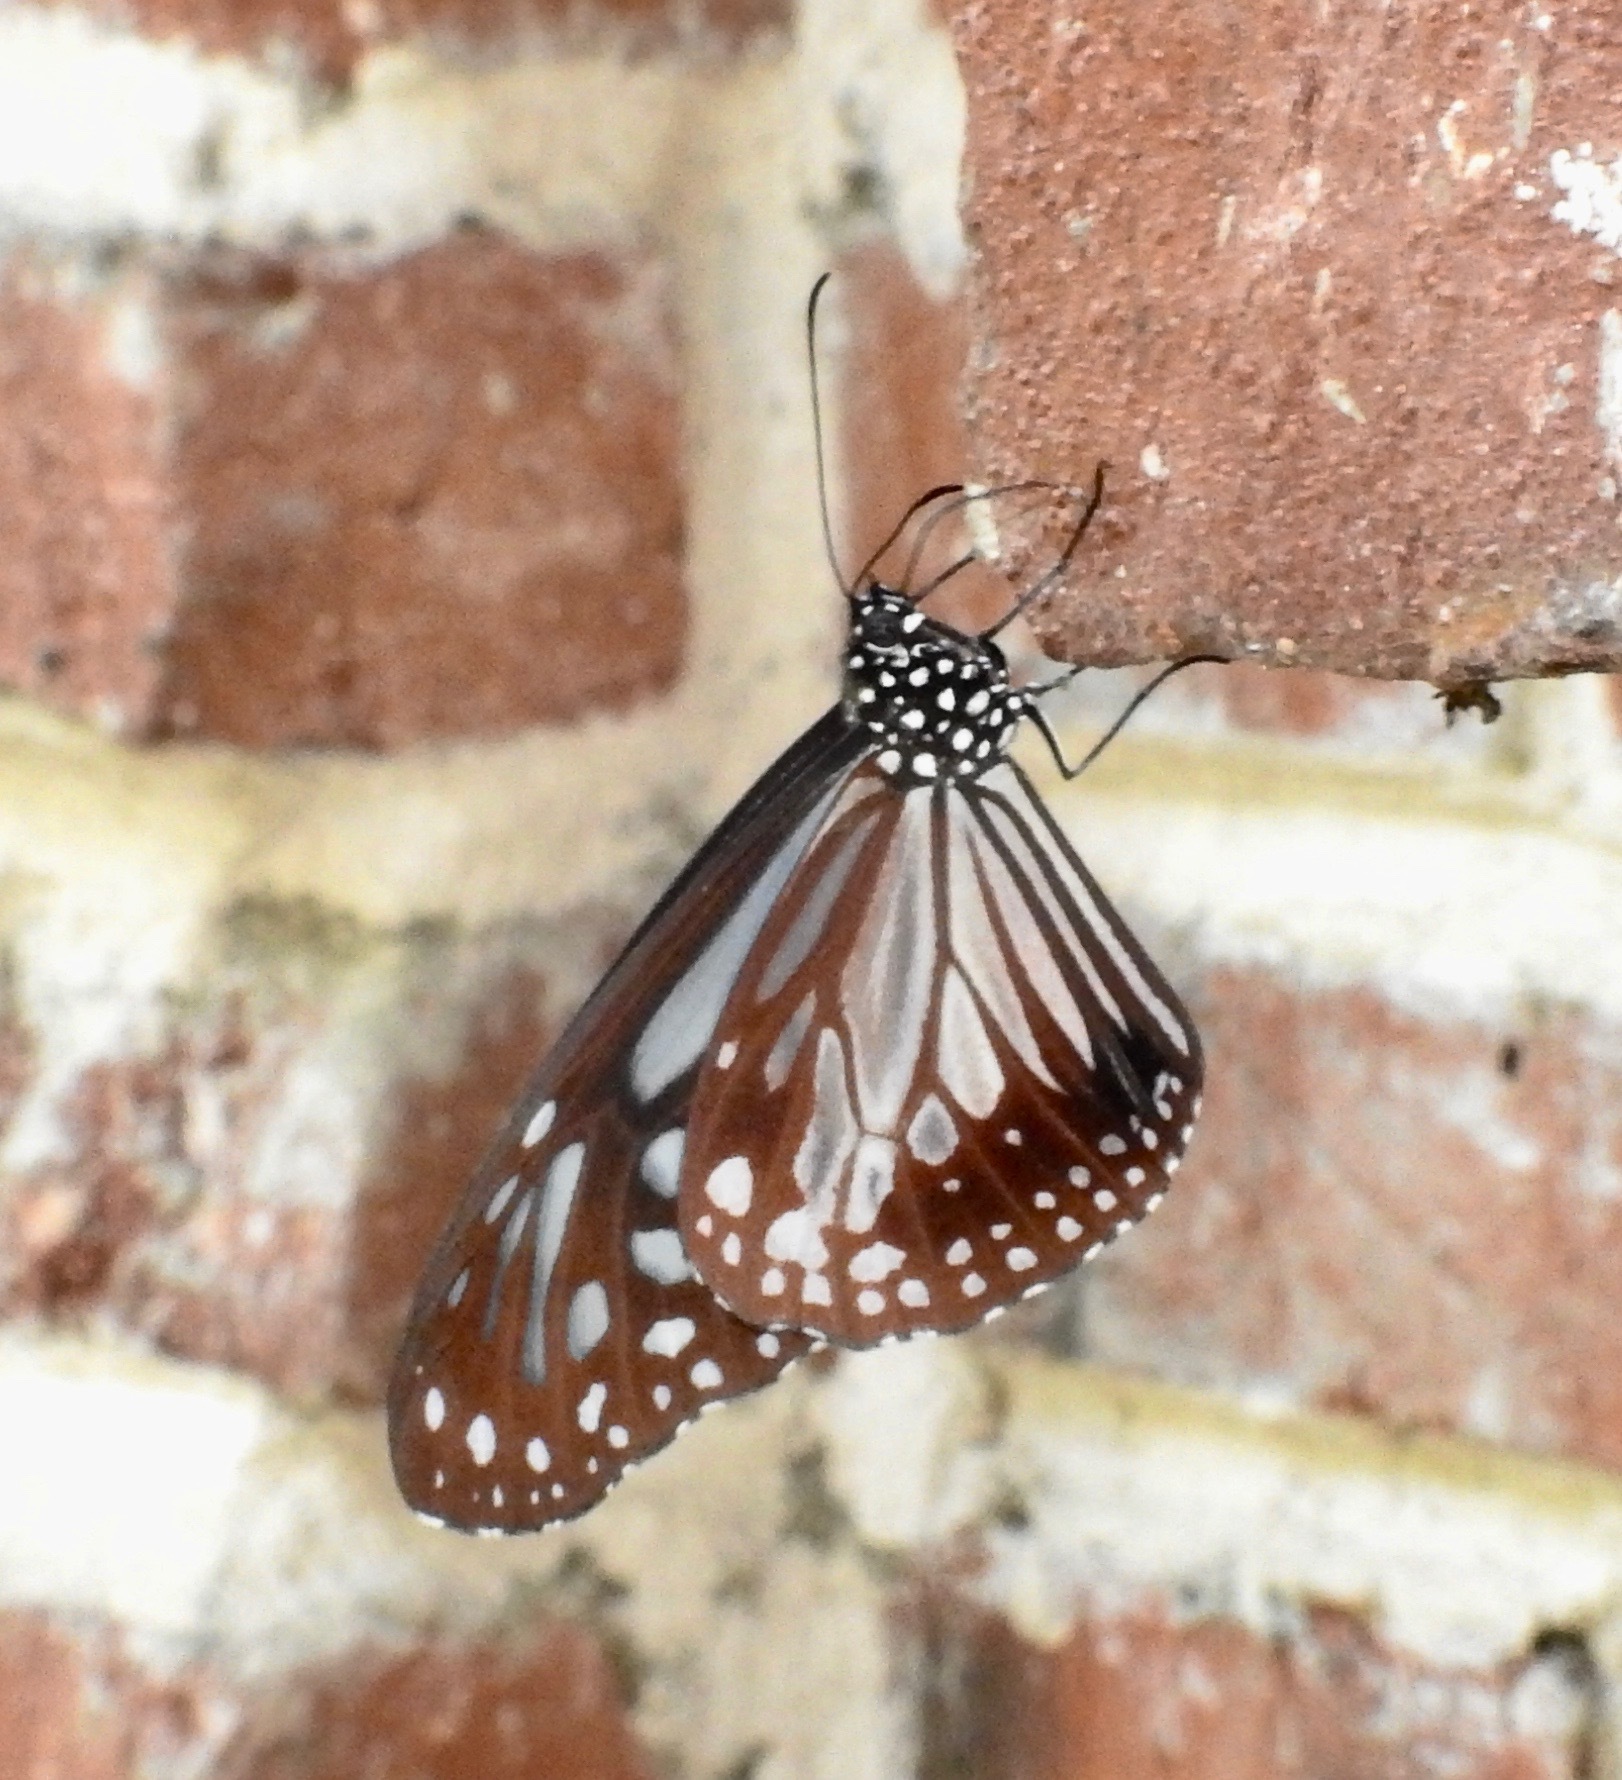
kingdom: Animalia
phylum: Arthropoda
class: Insecta
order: Lepidoptera
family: Nymphalidae
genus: Parantica
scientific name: Parantica melaneus
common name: Chocolate tiger
